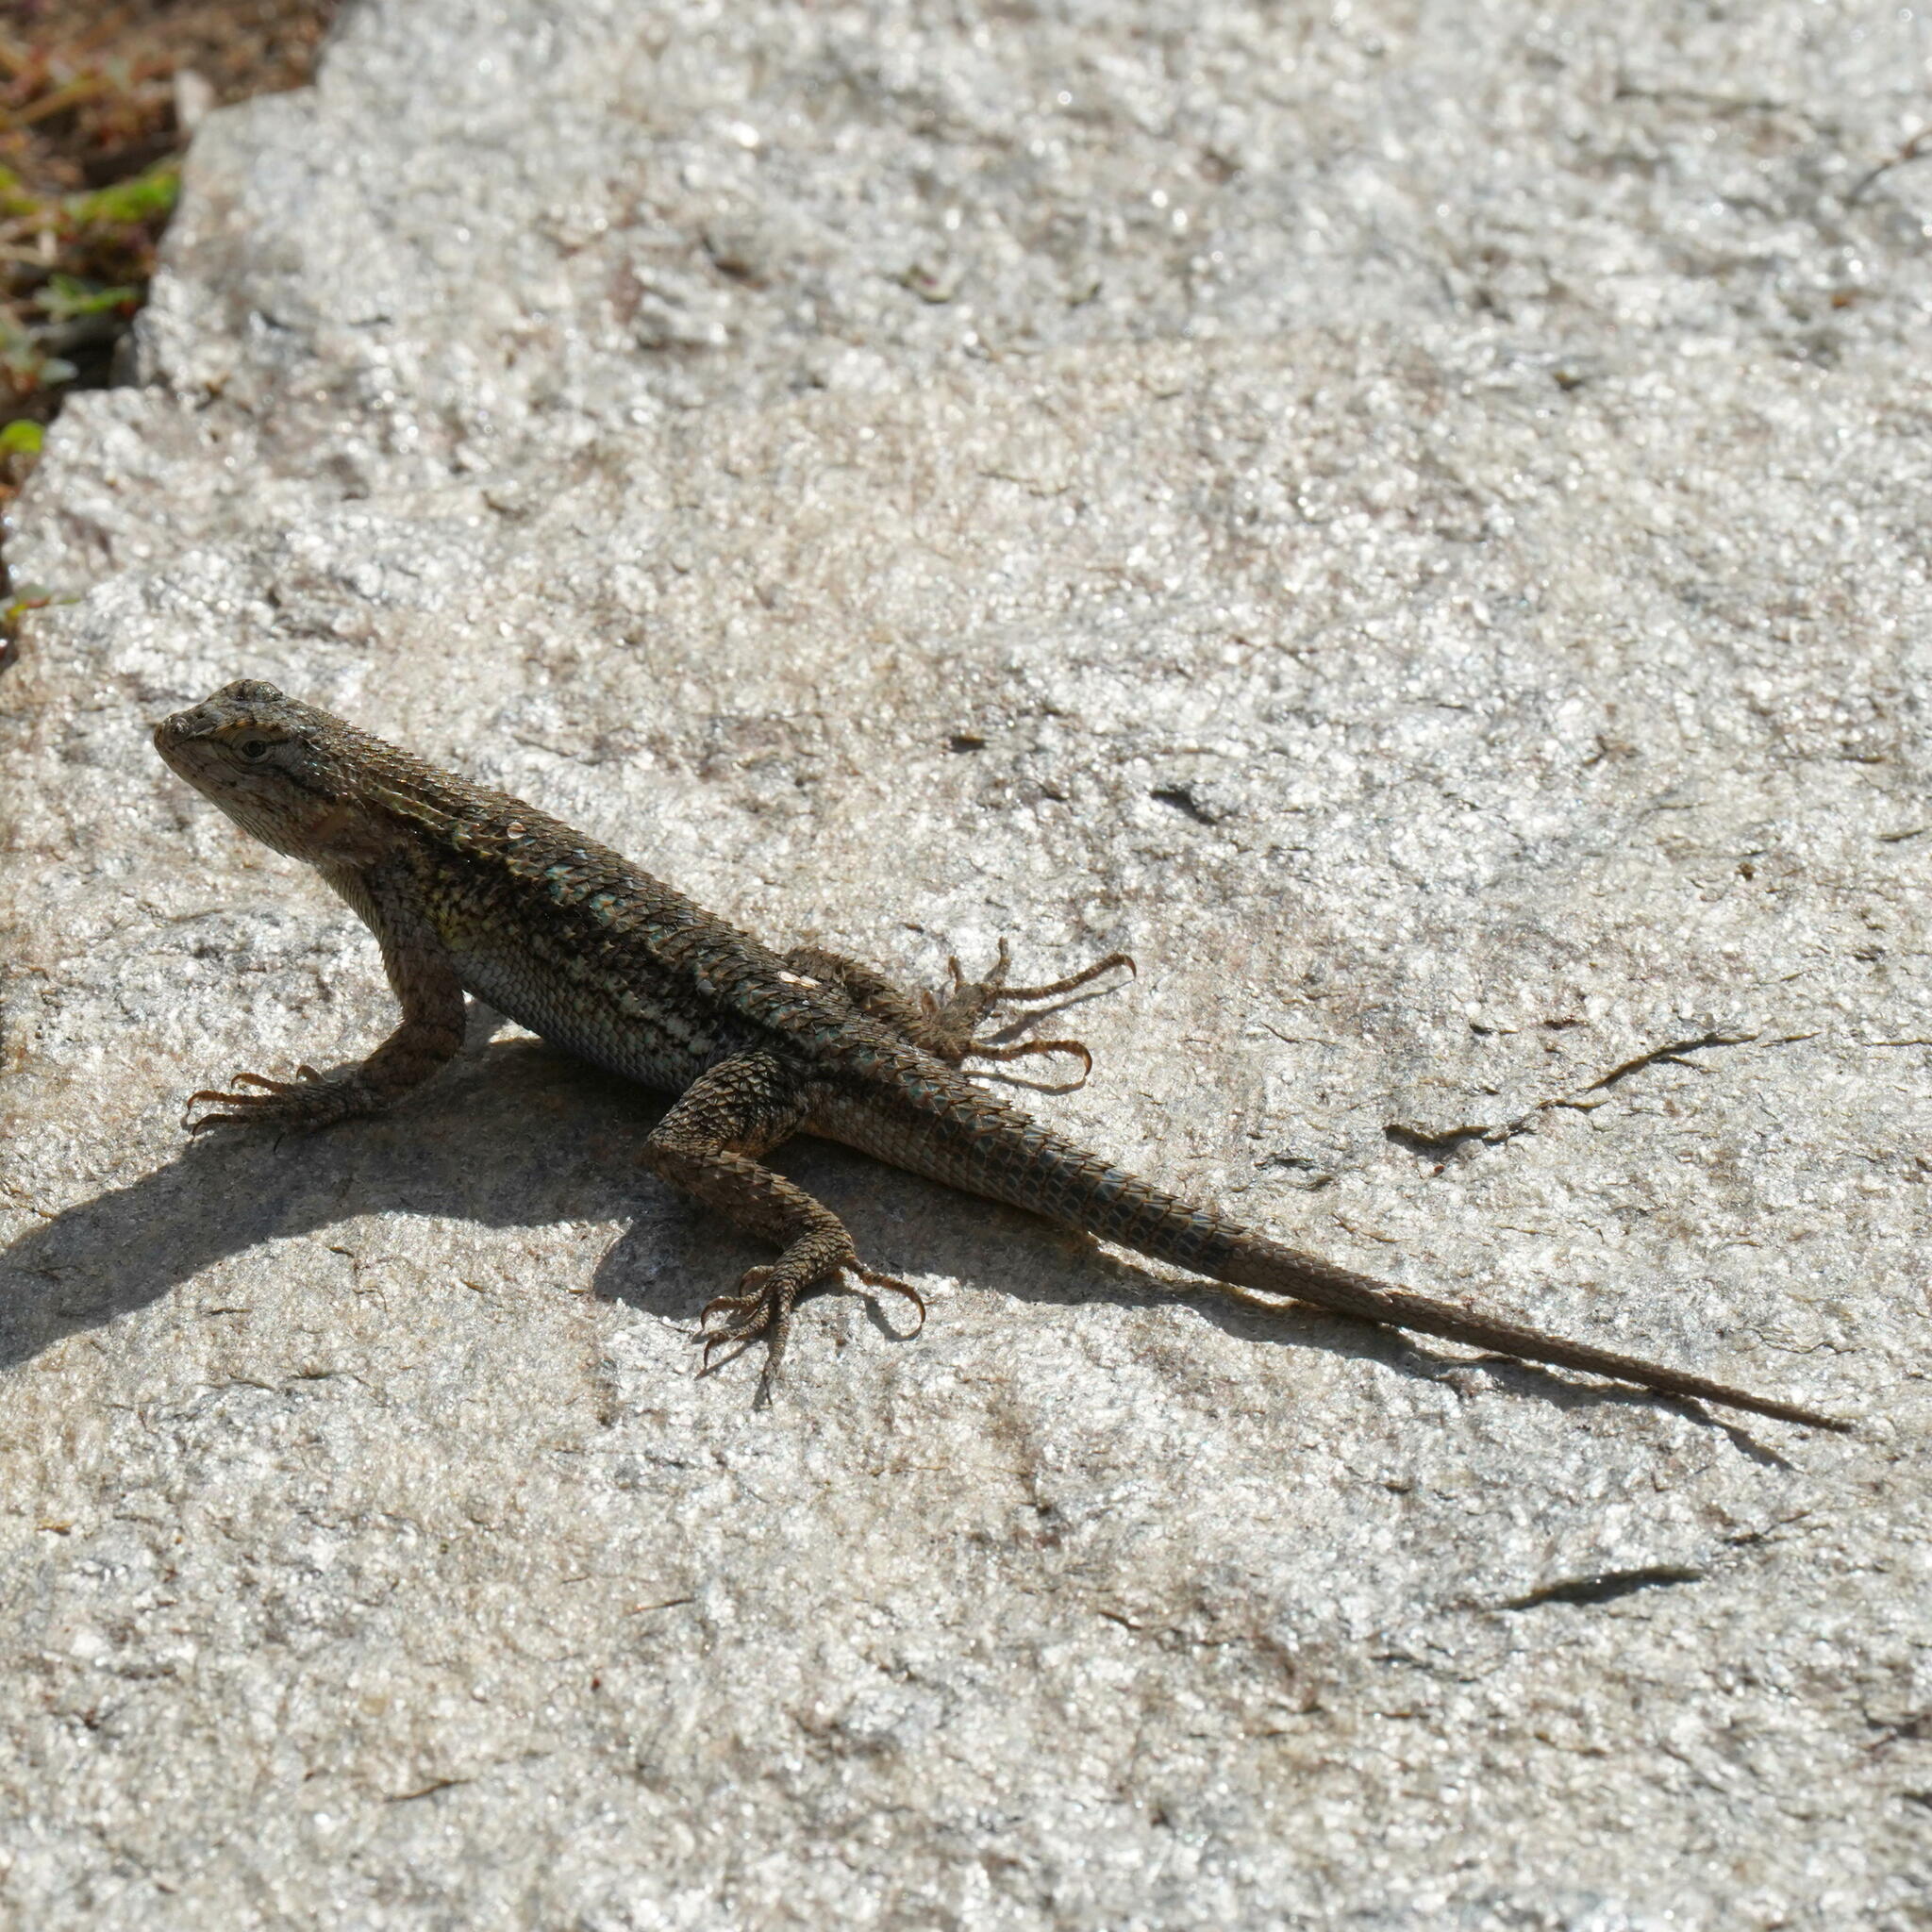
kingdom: Animalia
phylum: Chordata
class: Squamata
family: Phrynosomatidae
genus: Sceloporus
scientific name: Sceloporus occidentalis
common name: Western fence lizard
